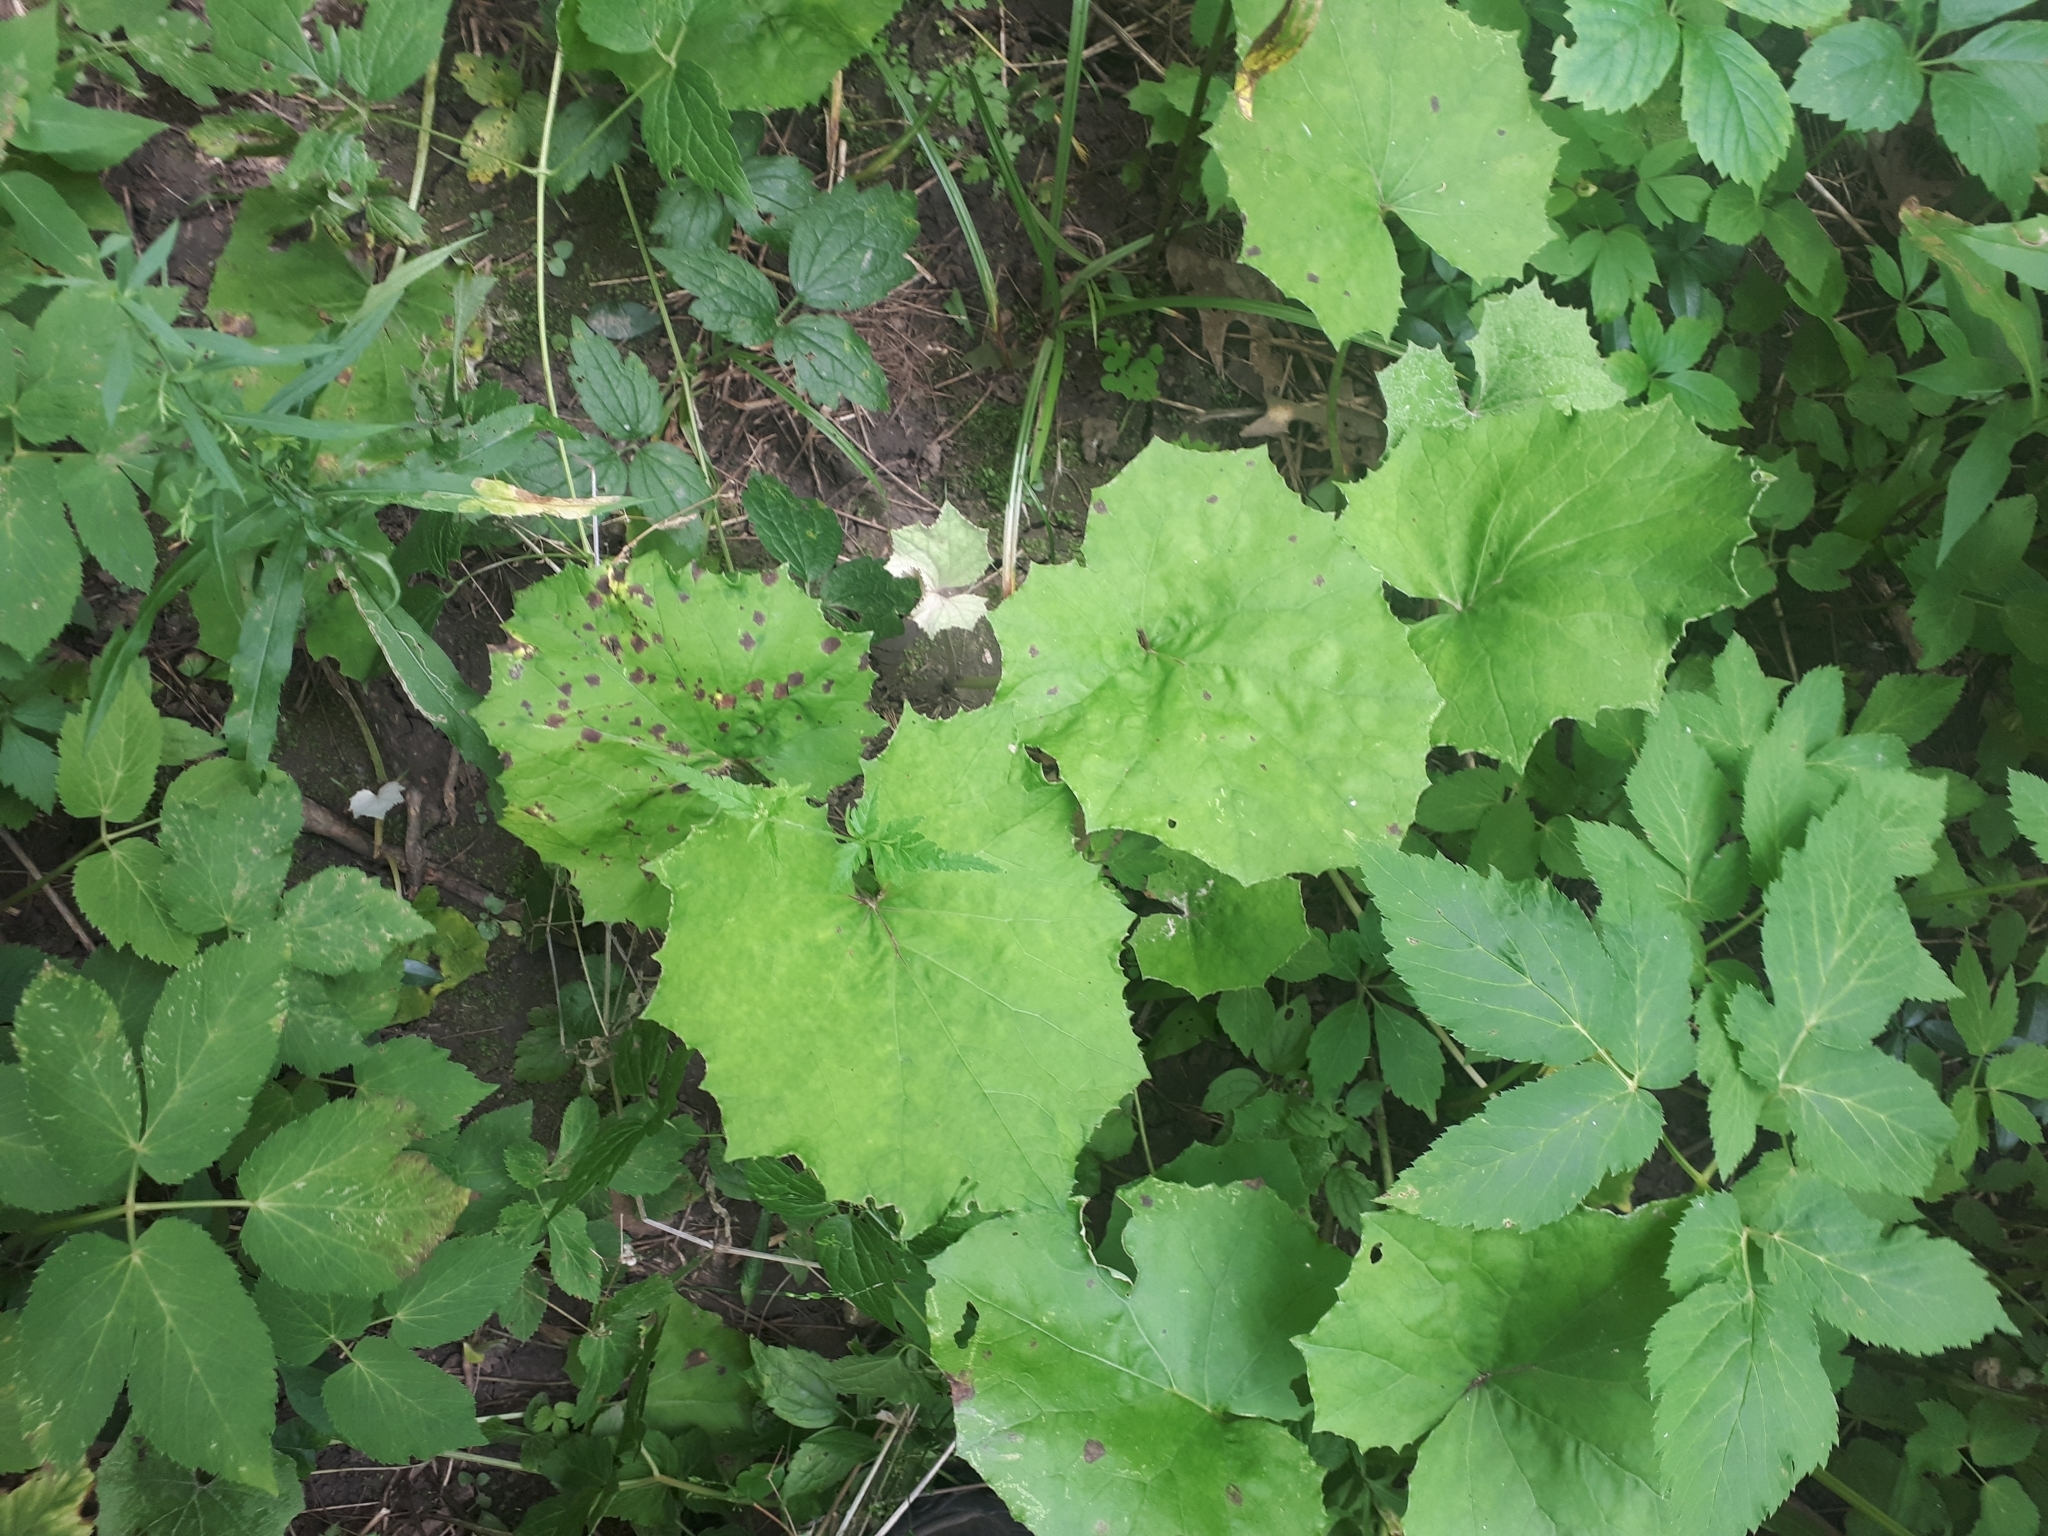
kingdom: Plantae
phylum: Tracheophyta
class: Magnoliopsida
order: Asterales
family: Asteraceae
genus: Tussilago
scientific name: Tussilago farfara
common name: Coltsfoot
